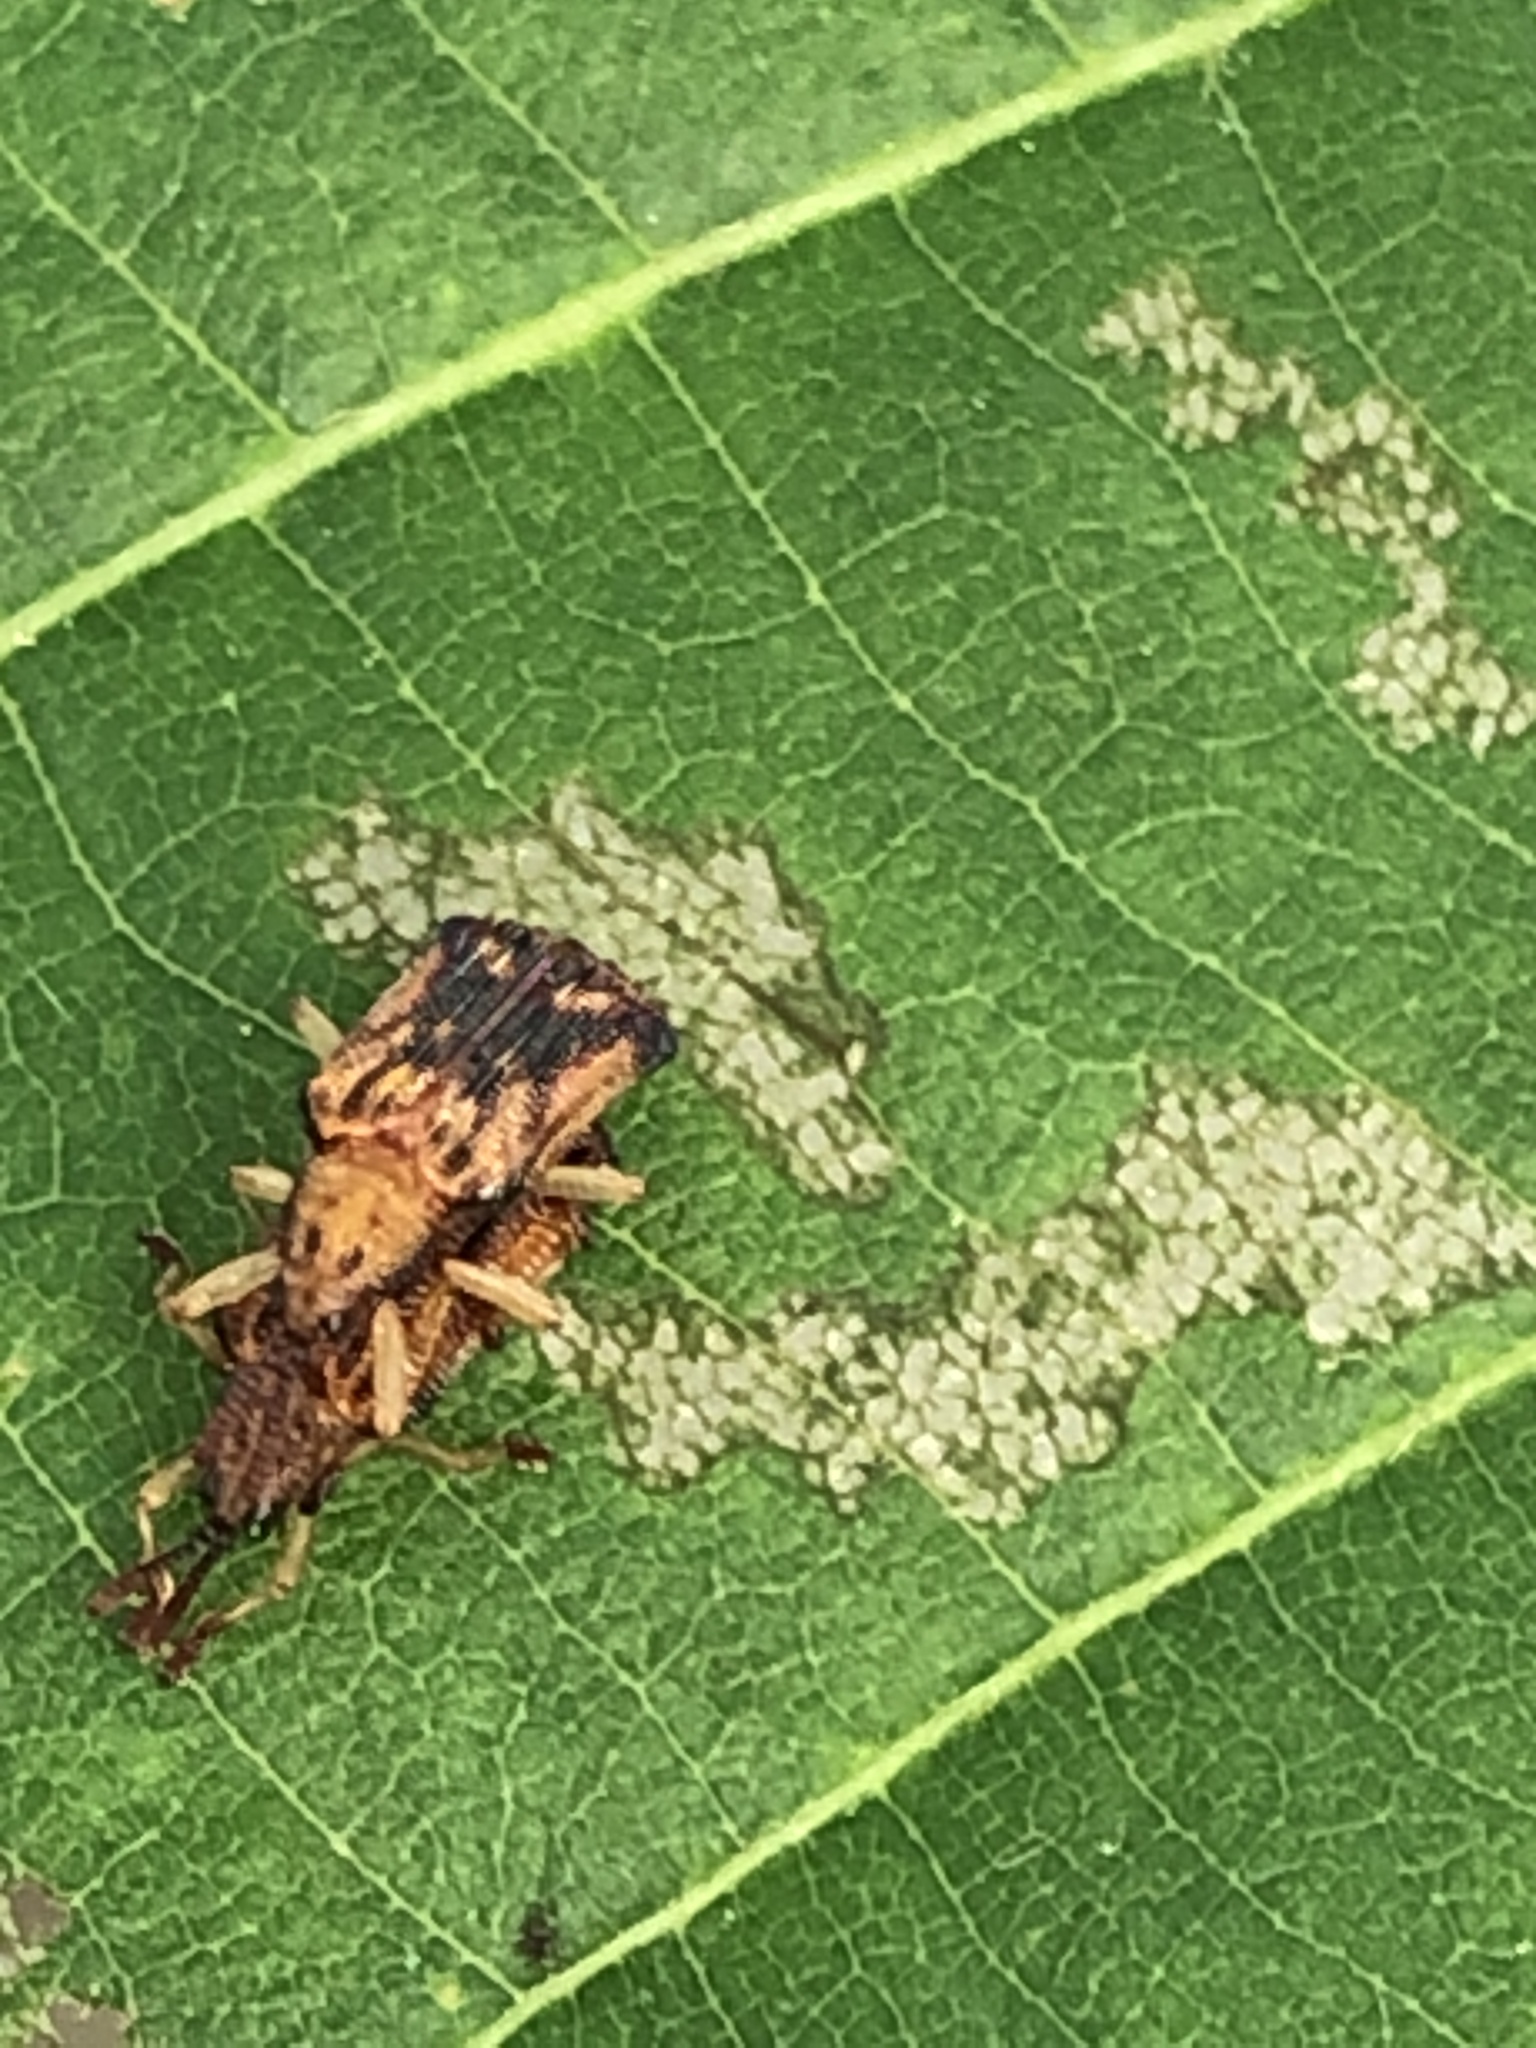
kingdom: Animalia
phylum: Arthropoda
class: Insecta
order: Coleoptera
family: Chrysomelidae
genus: Baliosus
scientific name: Baliosus nervosus
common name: Basswood leaf miner
